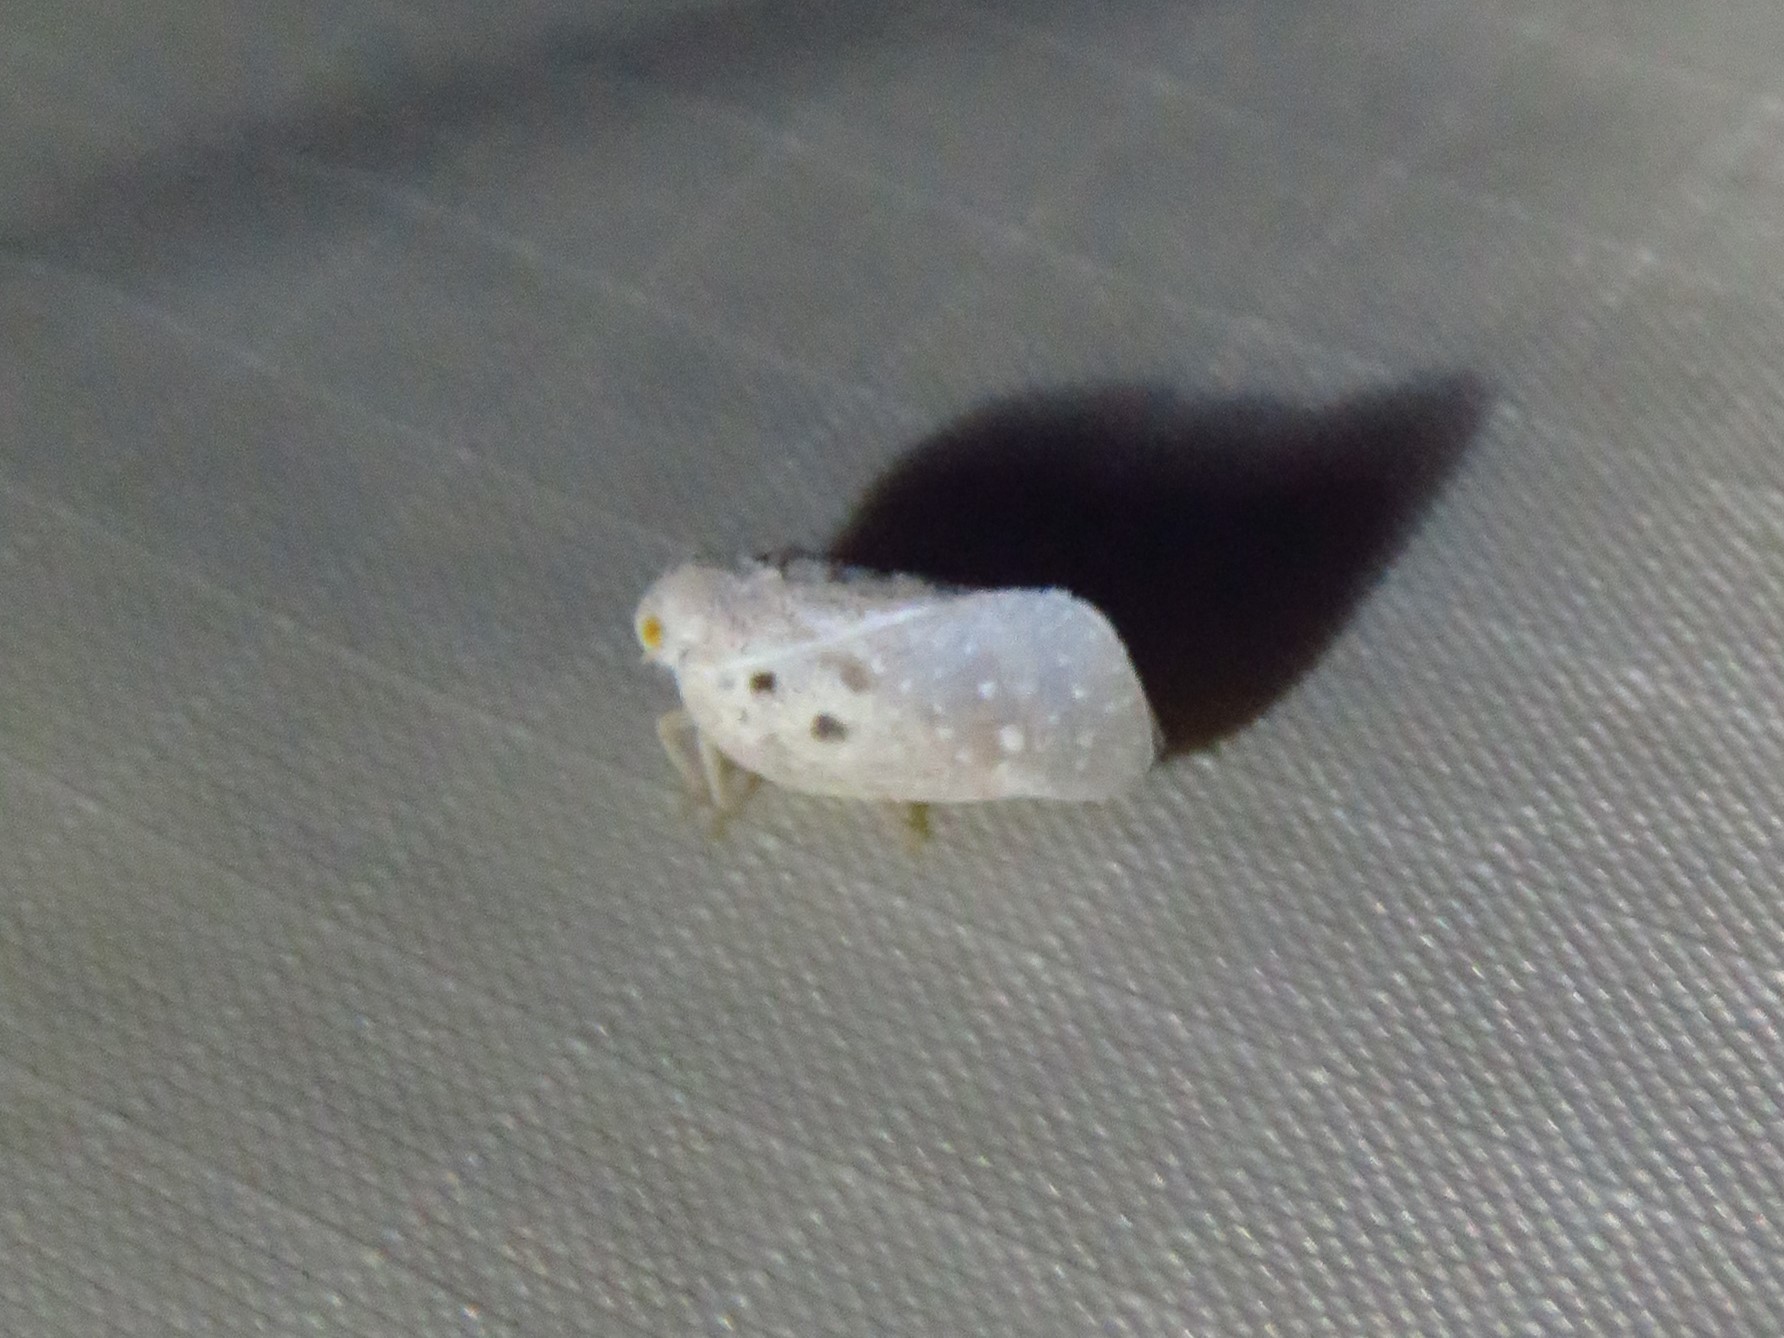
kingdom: Animalia
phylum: Arthropoda
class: Insecta
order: Hemiptera
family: Flatidae
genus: Metcalfa
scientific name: Metcalfa pruinosa
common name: Citrus flatid planthopper
